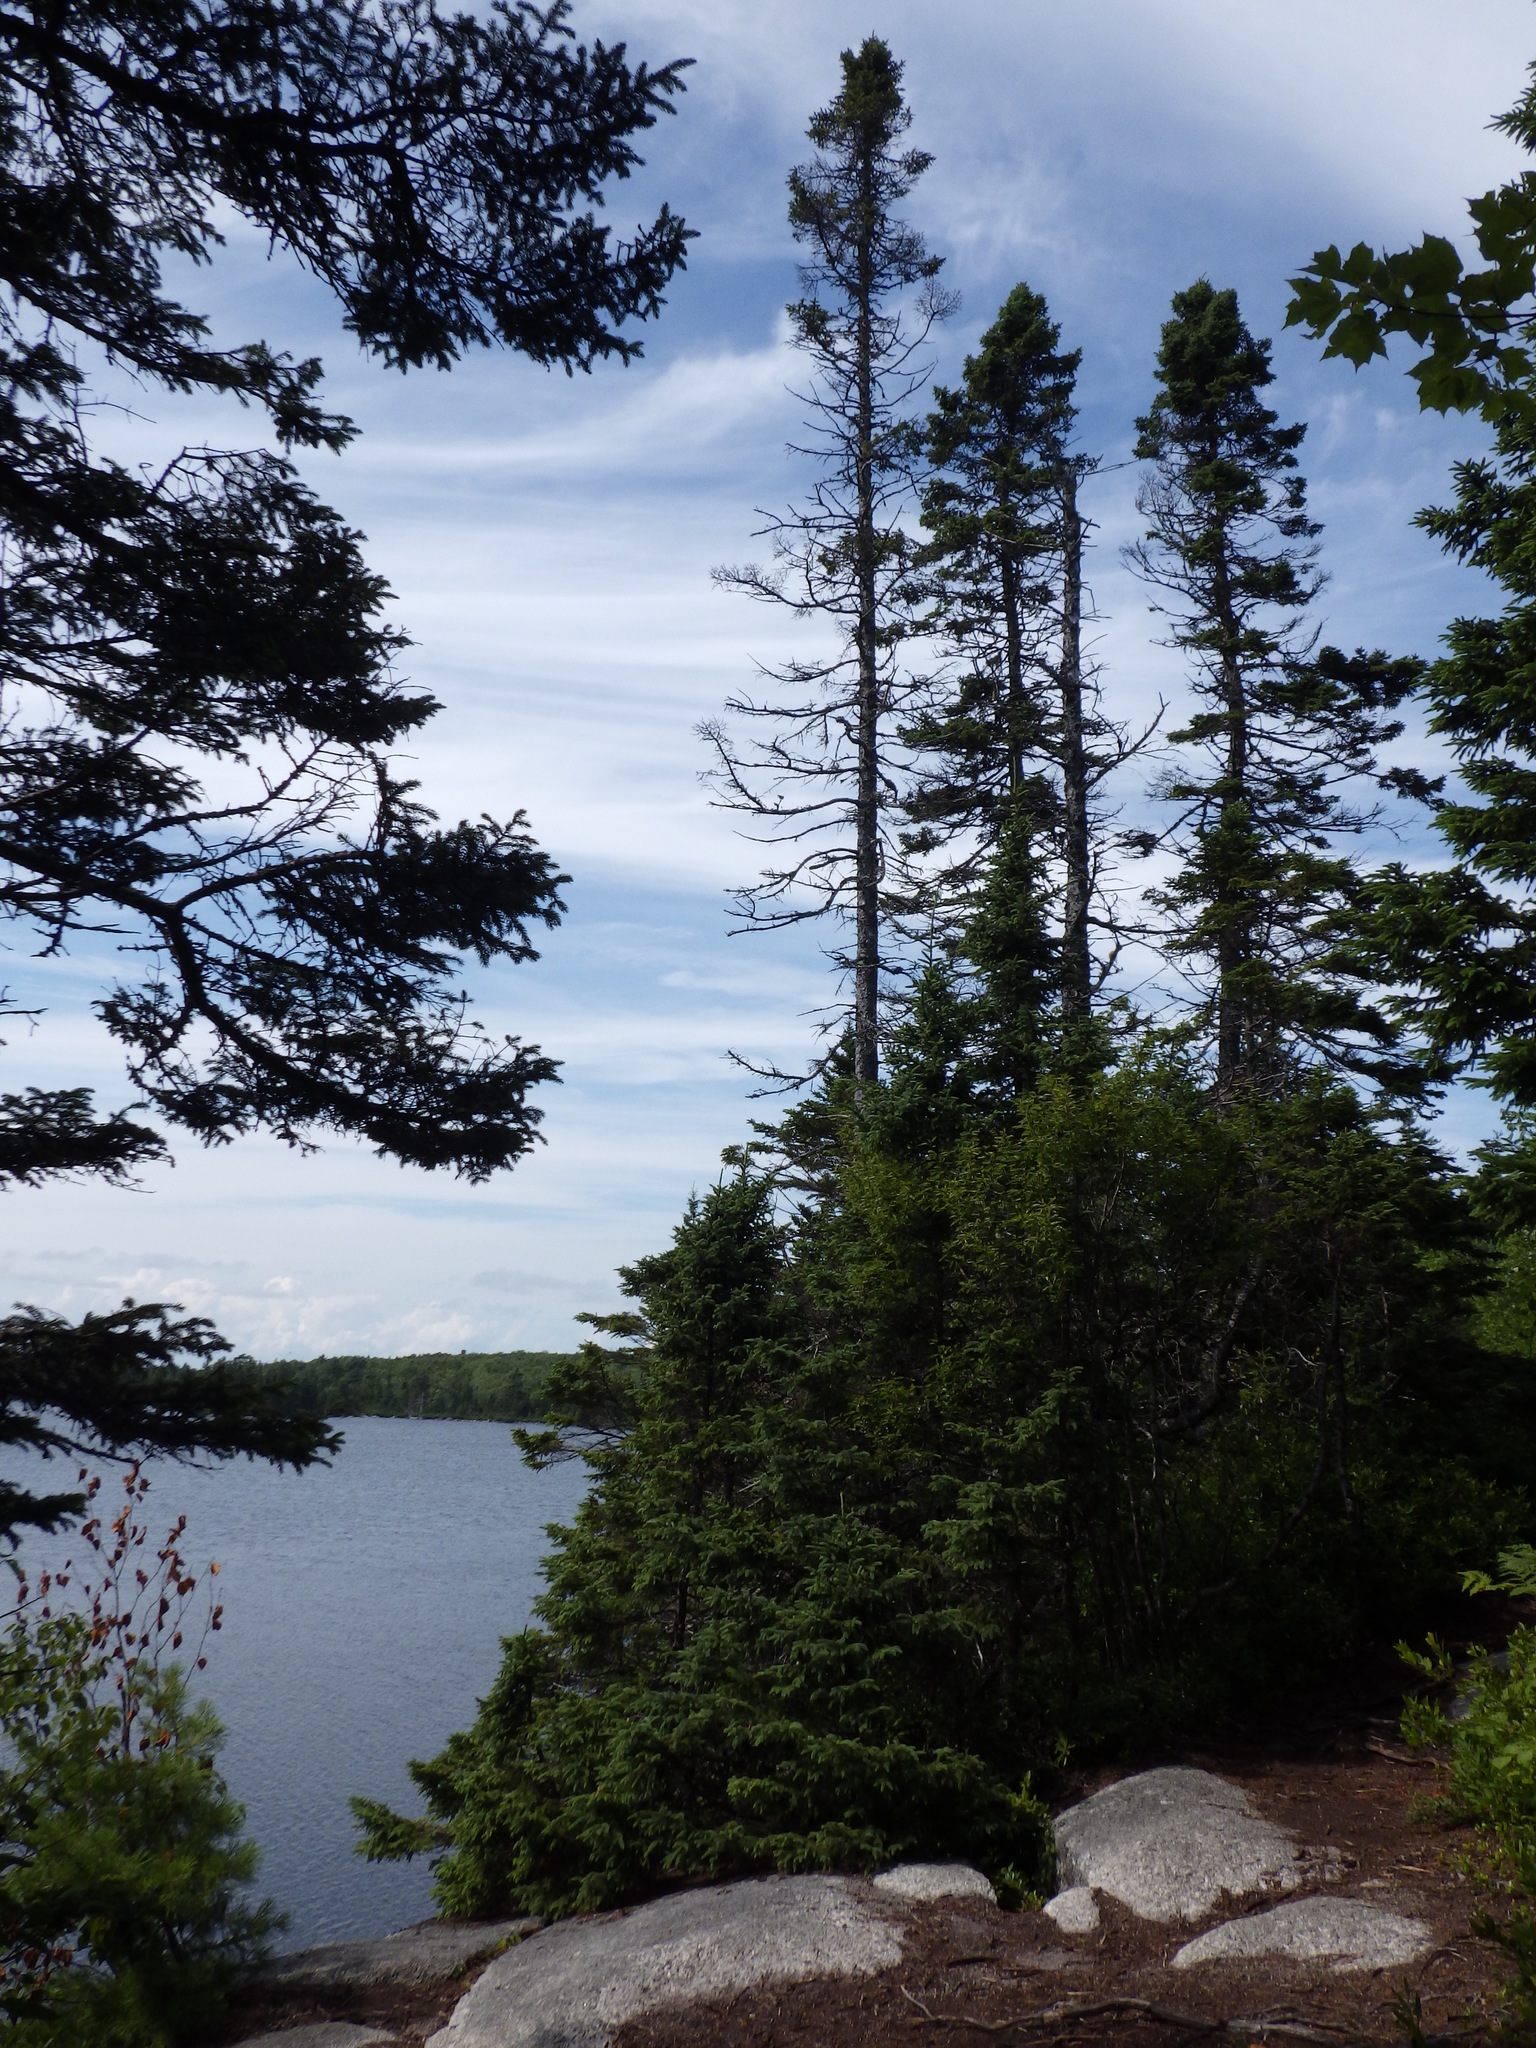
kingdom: Plantae
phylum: Tracheophyta
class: Pinopsida
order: Pinales
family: Pinaceae
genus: Picea
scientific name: Picea mariana
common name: Black spruce
